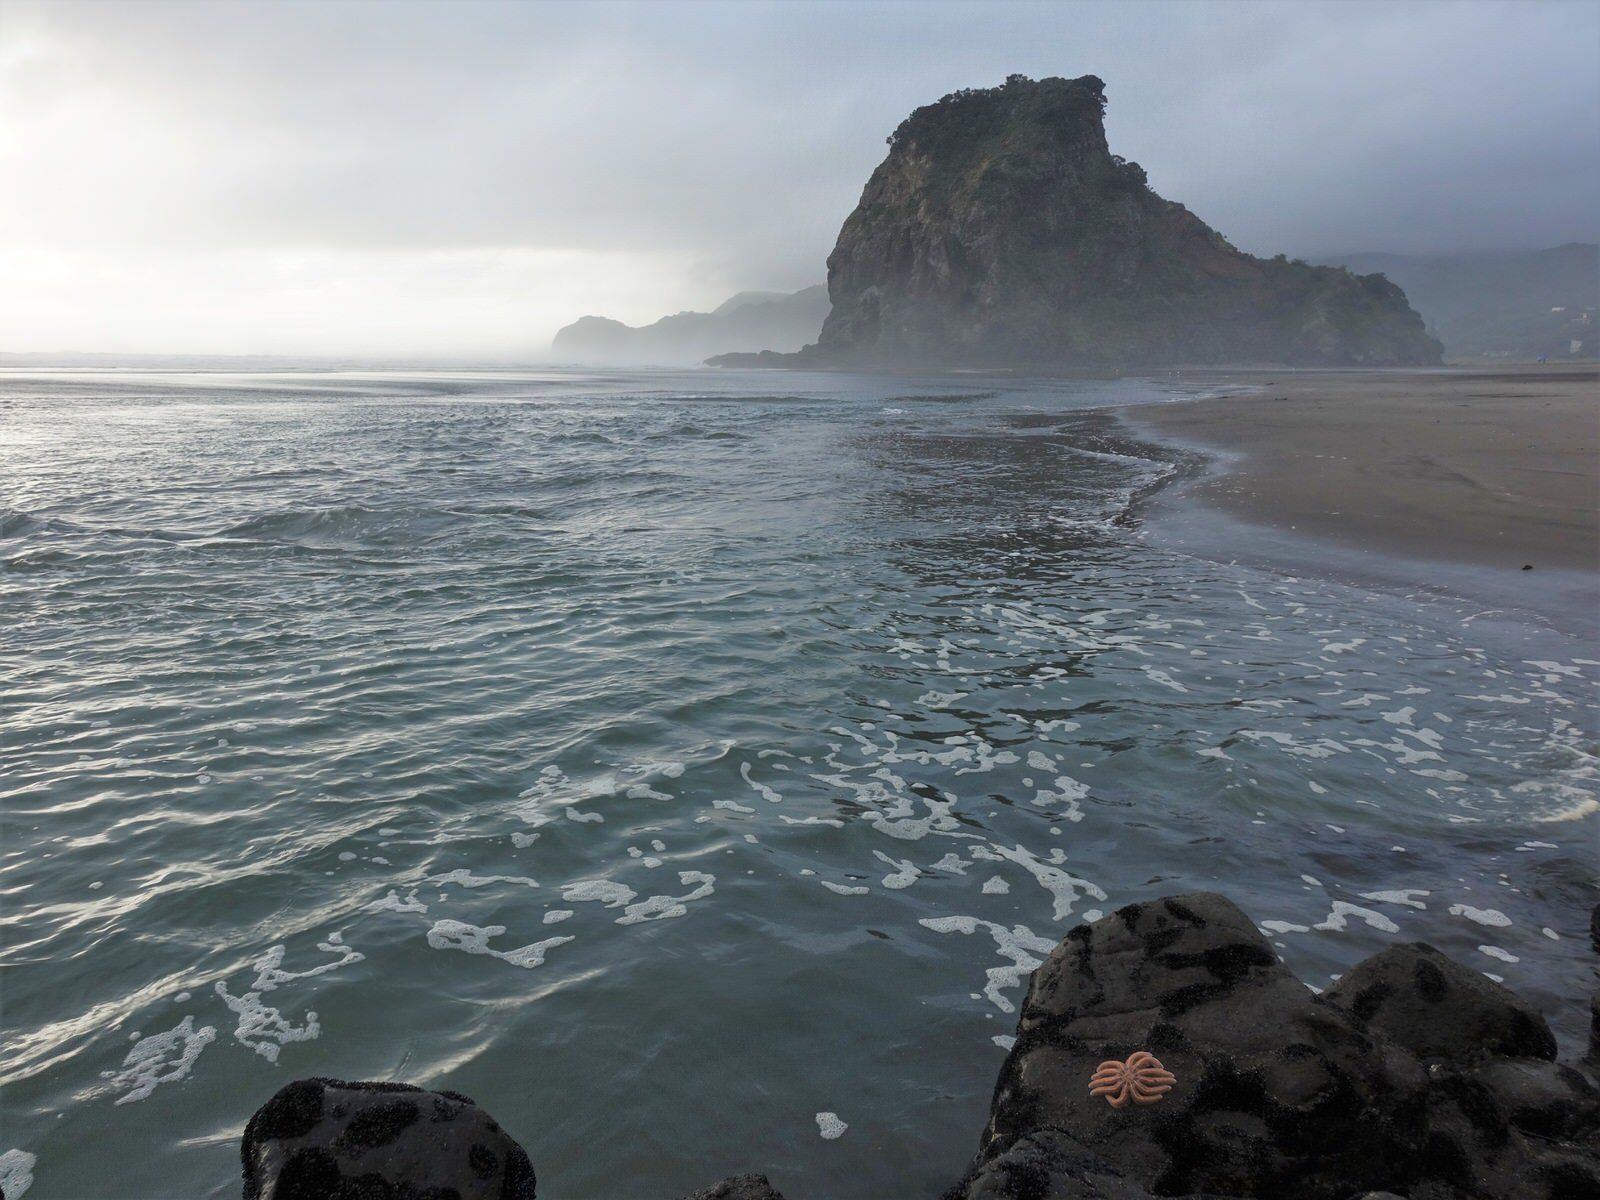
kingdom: Animalia
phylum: Echinodermata
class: Asteroidea
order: Forcipulatida
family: Stichasteridae
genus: Stichaster
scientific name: Stichaster australis
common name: Reef starfish
